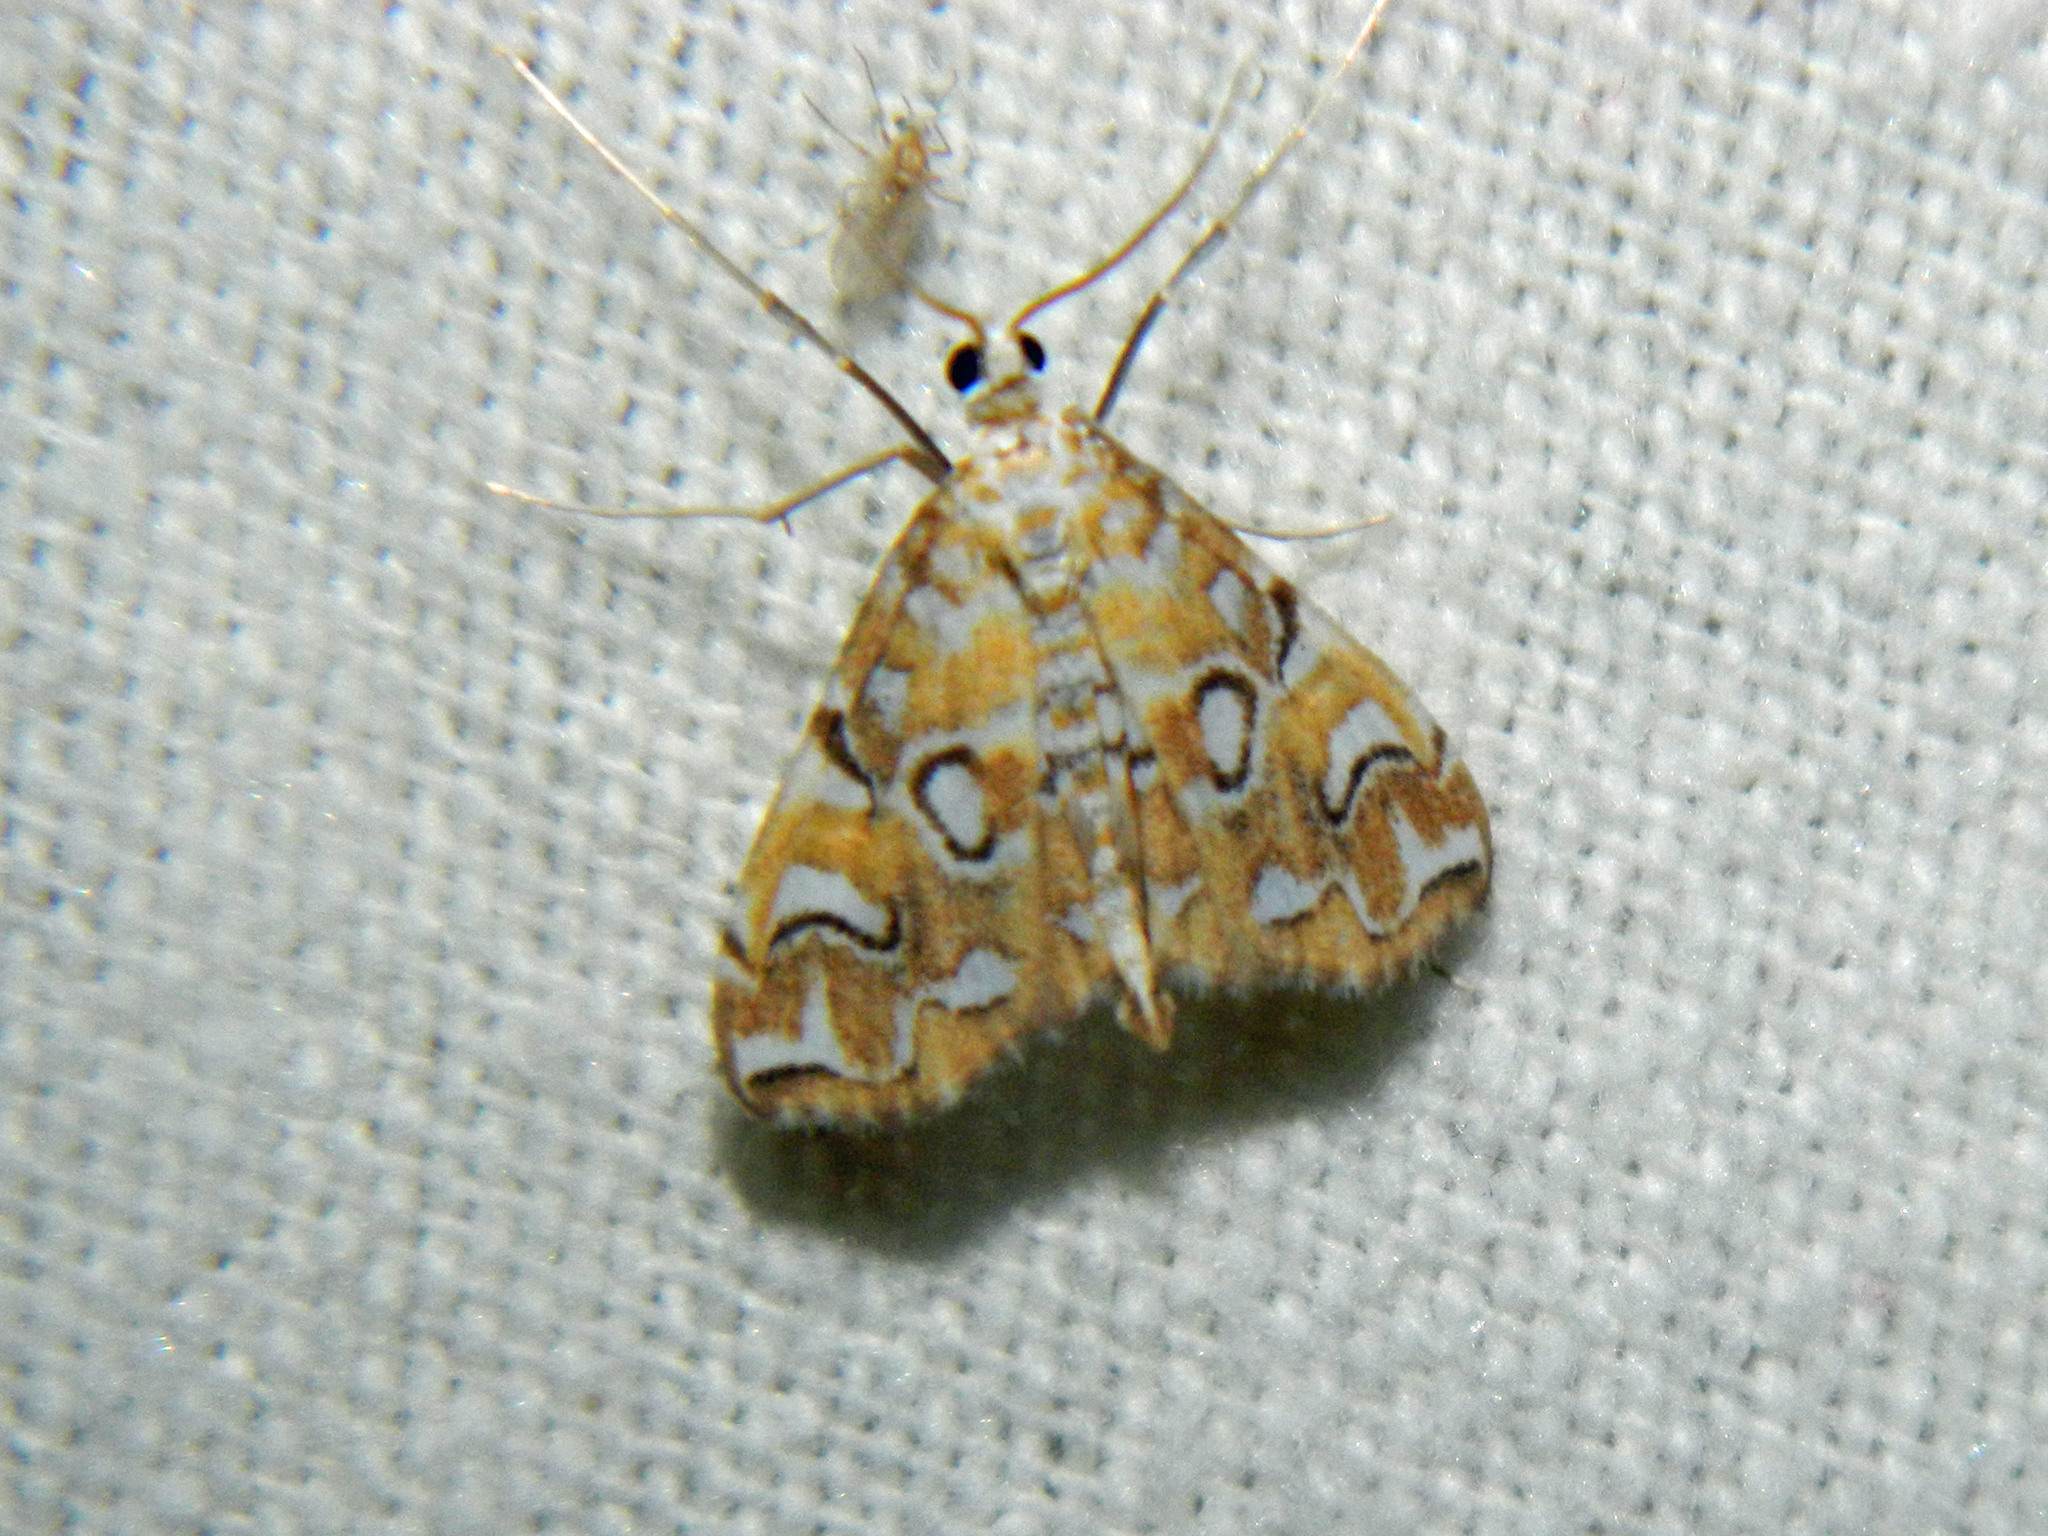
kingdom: Animalia
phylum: Arthropoda
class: Insecta
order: Lepidoptera
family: Crambidae
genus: Elophila
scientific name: Elophila icciusalis
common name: Pondside pyralid moth
